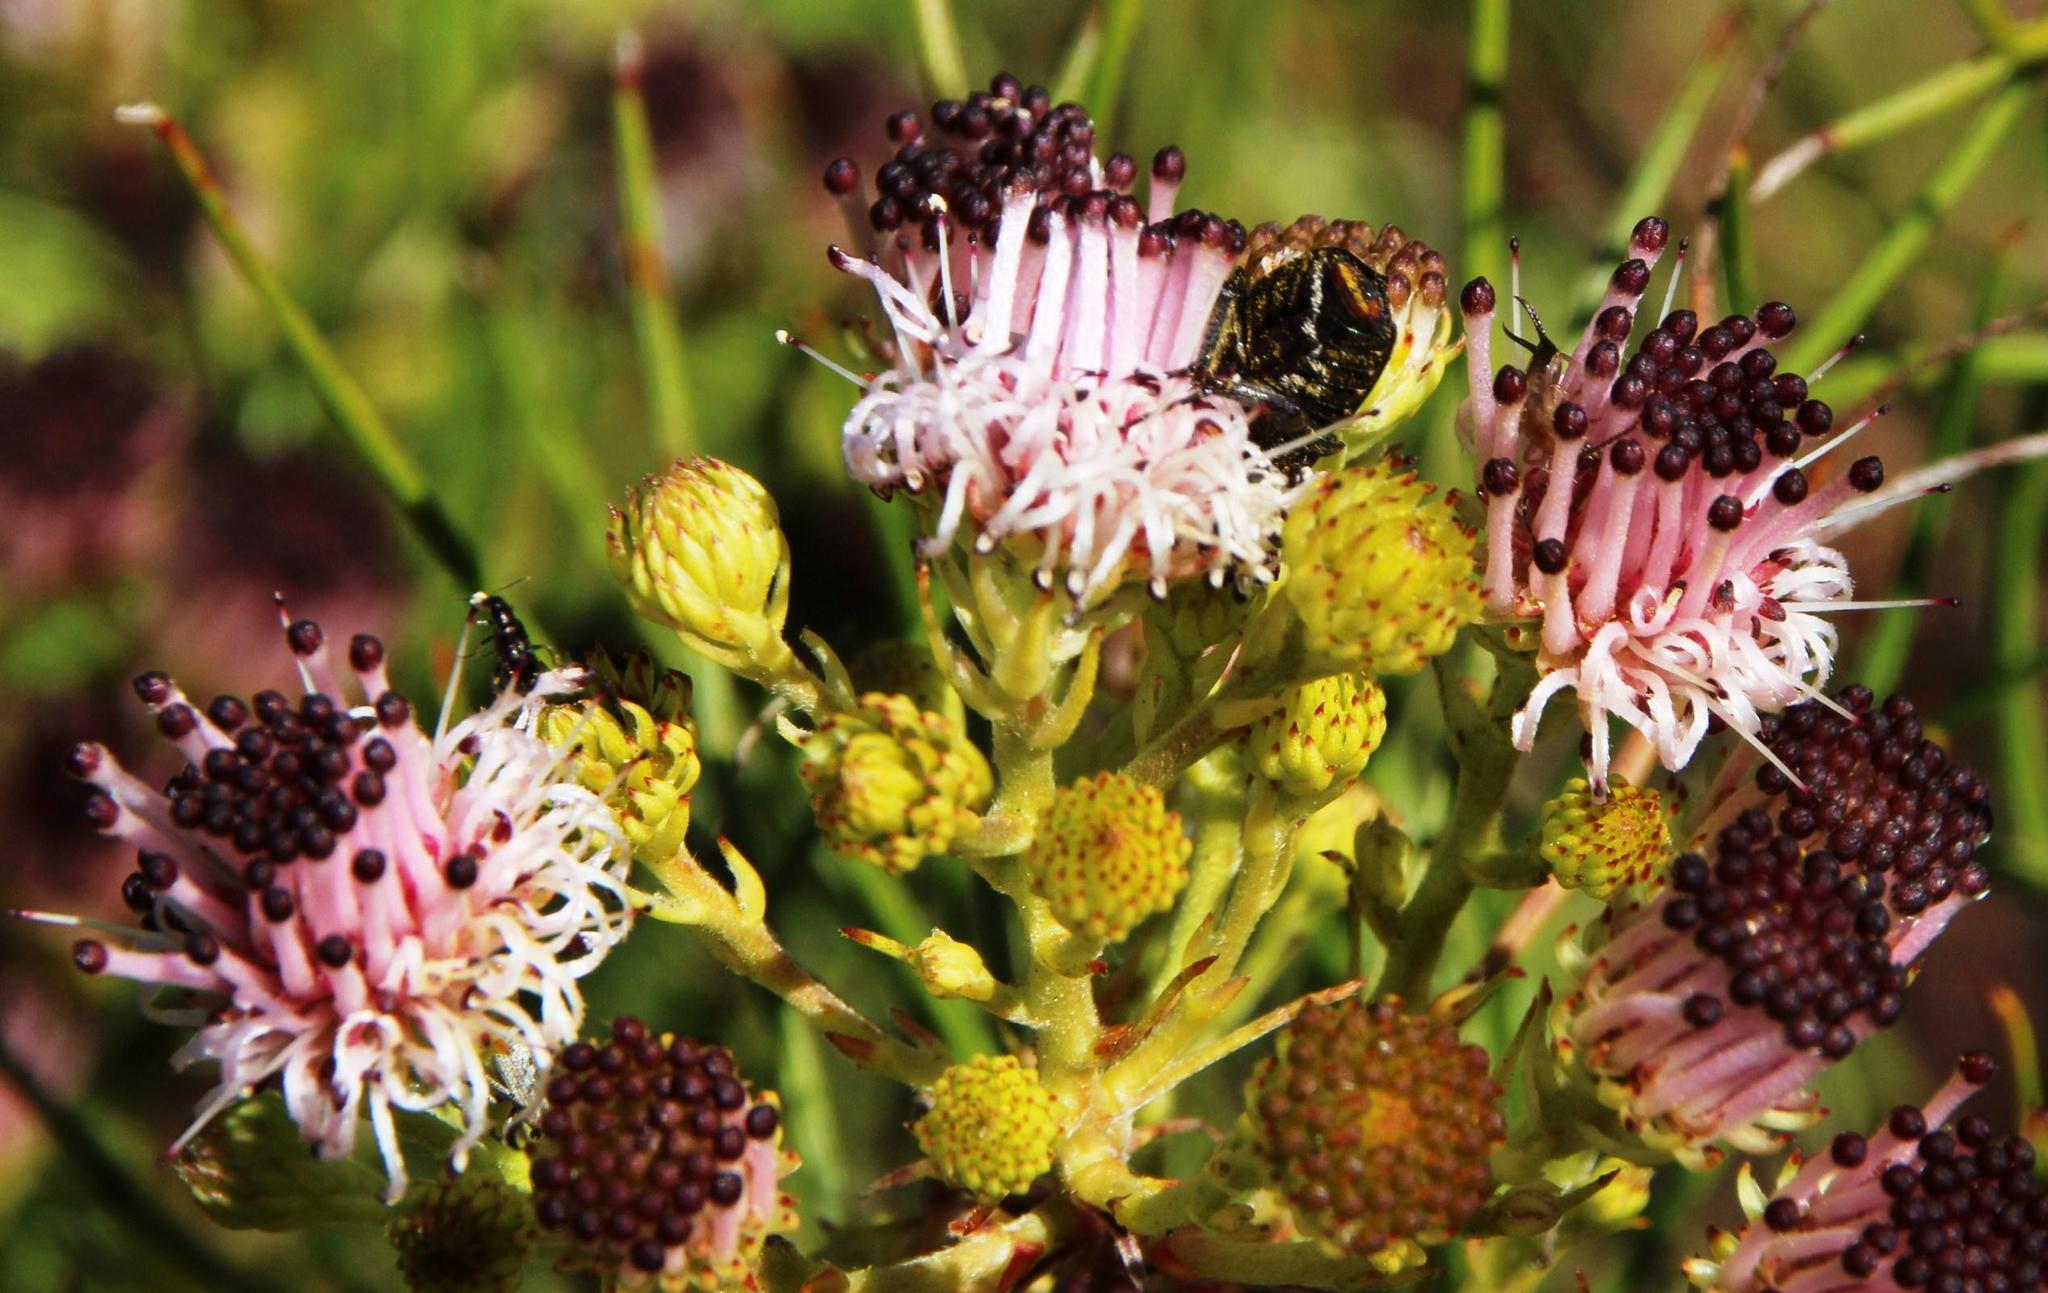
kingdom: Animalia
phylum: Arthropoda
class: Insecta
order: Coleoptera
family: Scarabaeidae
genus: Oxythyrea
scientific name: Oxythyrea
